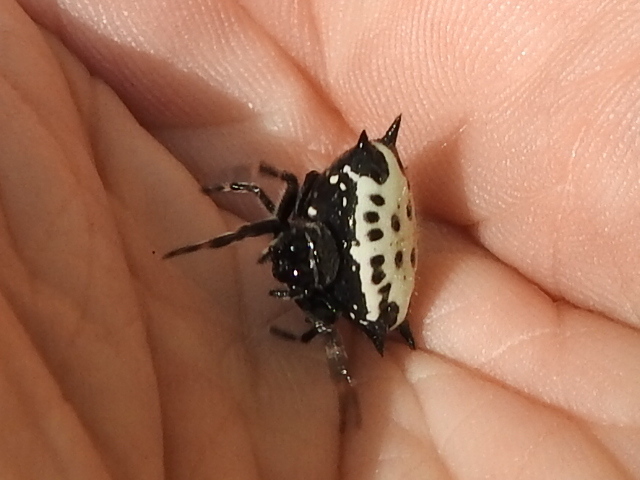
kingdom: Animalia
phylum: Arthropoda
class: Arachnida
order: Araneae
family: Araneidae
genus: Gasteracantha
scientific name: Gasteracantha cancriformis
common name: Orb weavers
